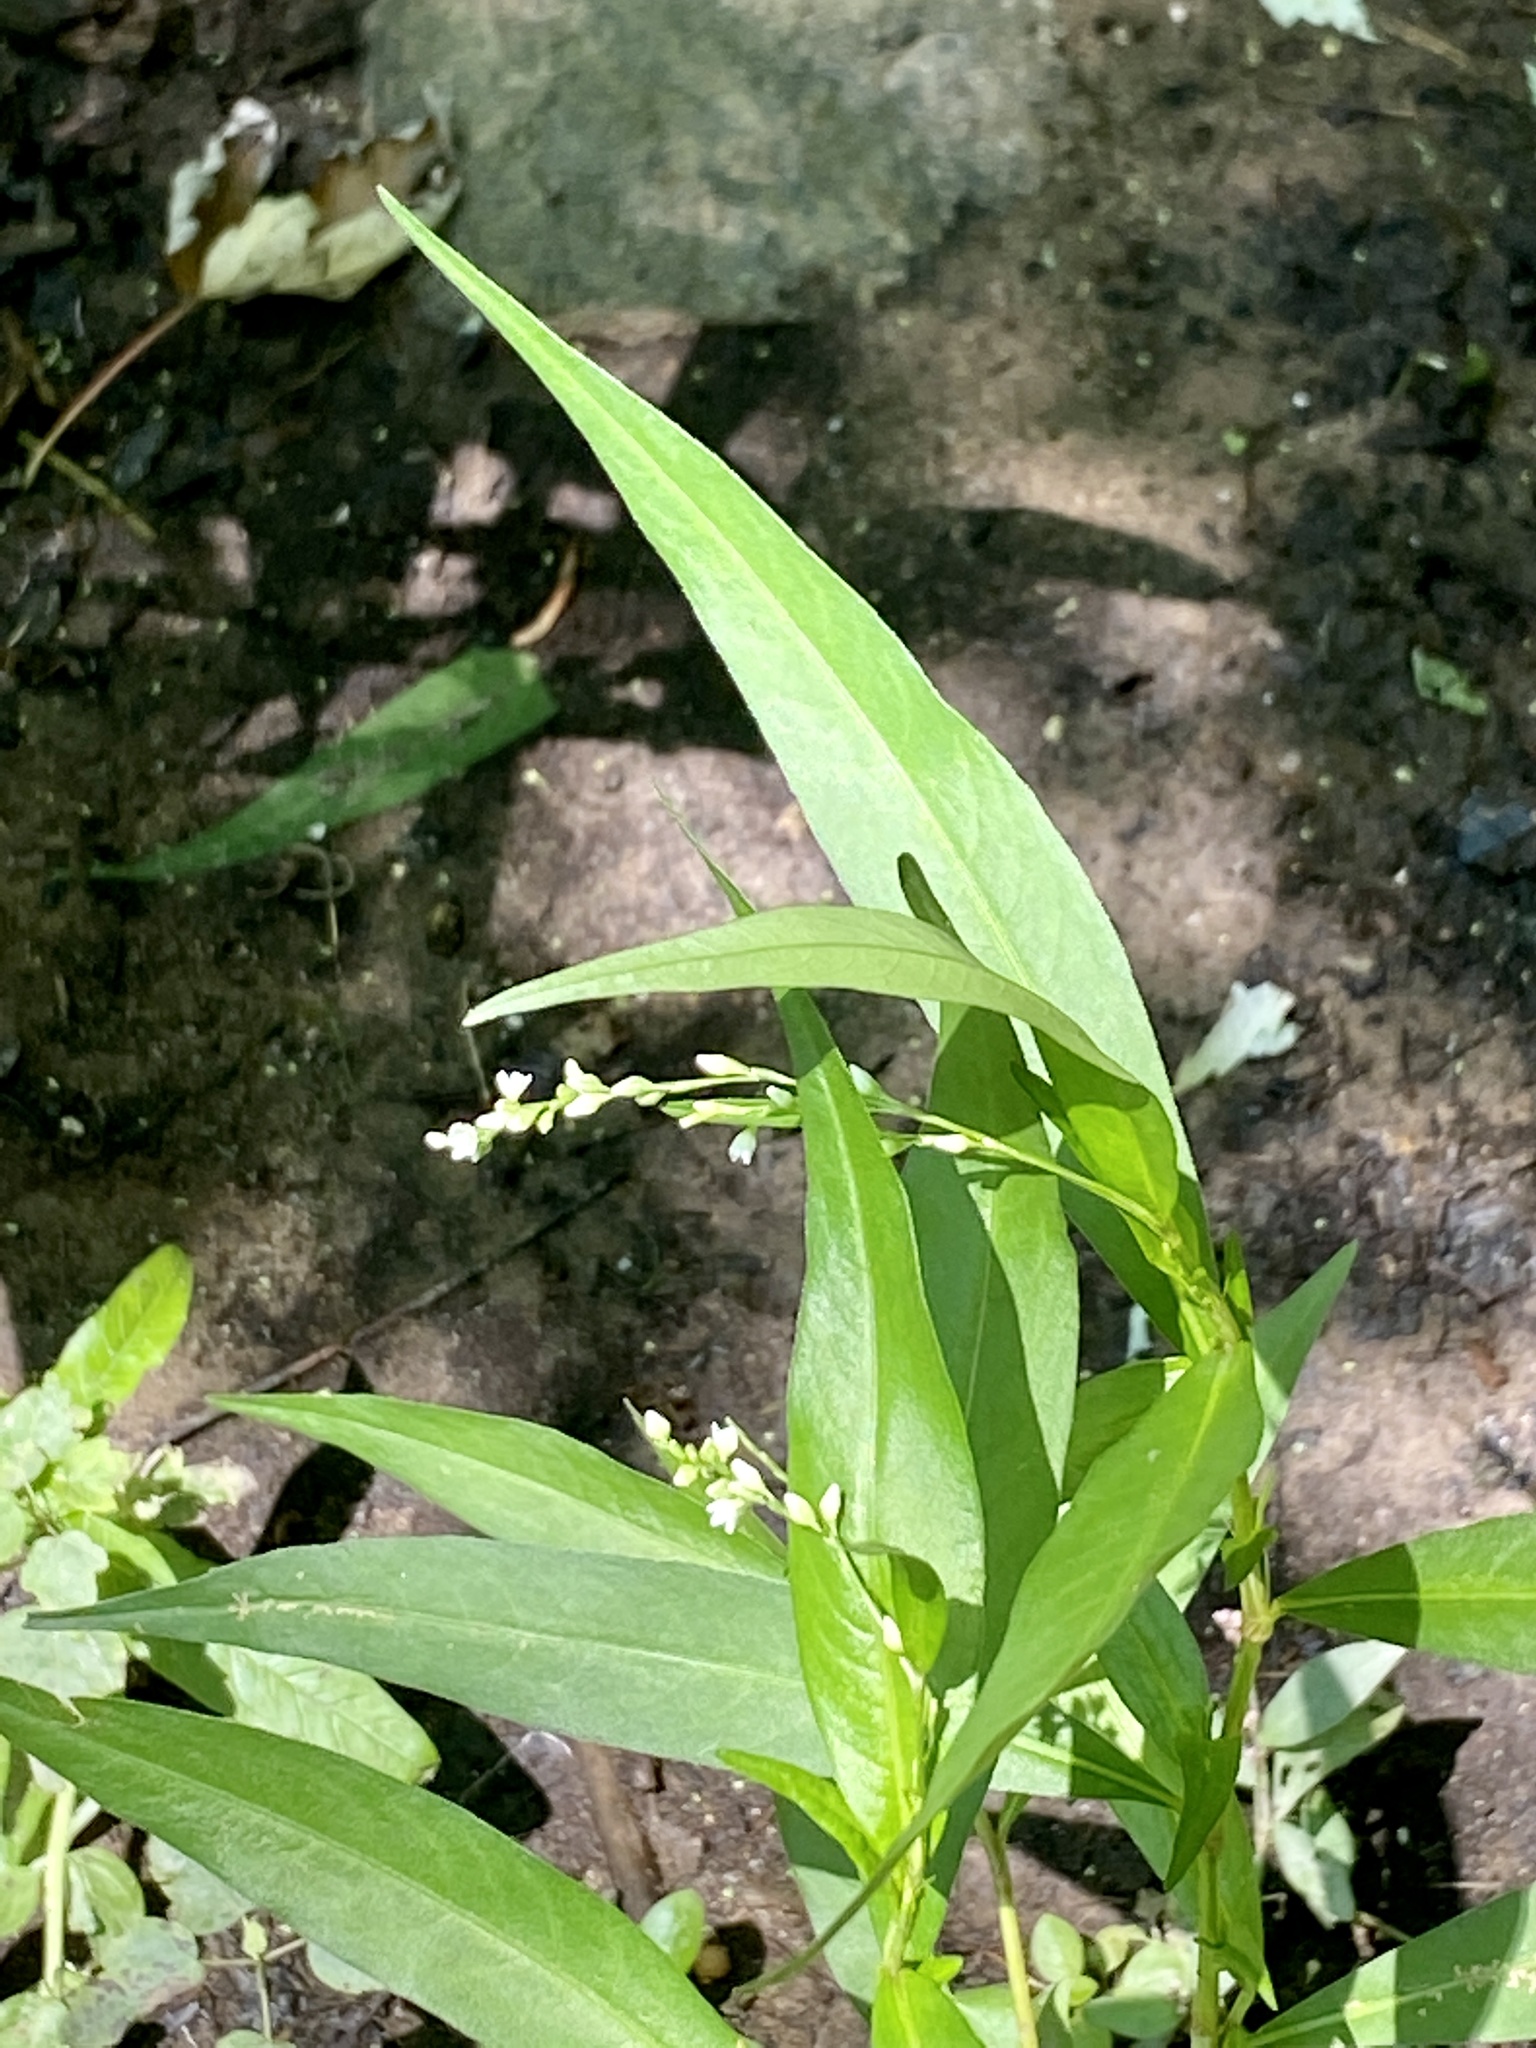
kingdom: Plantae
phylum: Tracheophyta
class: Magnoliopsida
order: Caryophyllales
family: Polygonaceae
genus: Persicaria
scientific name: Persicaria punctata
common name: Dotted smartweed
